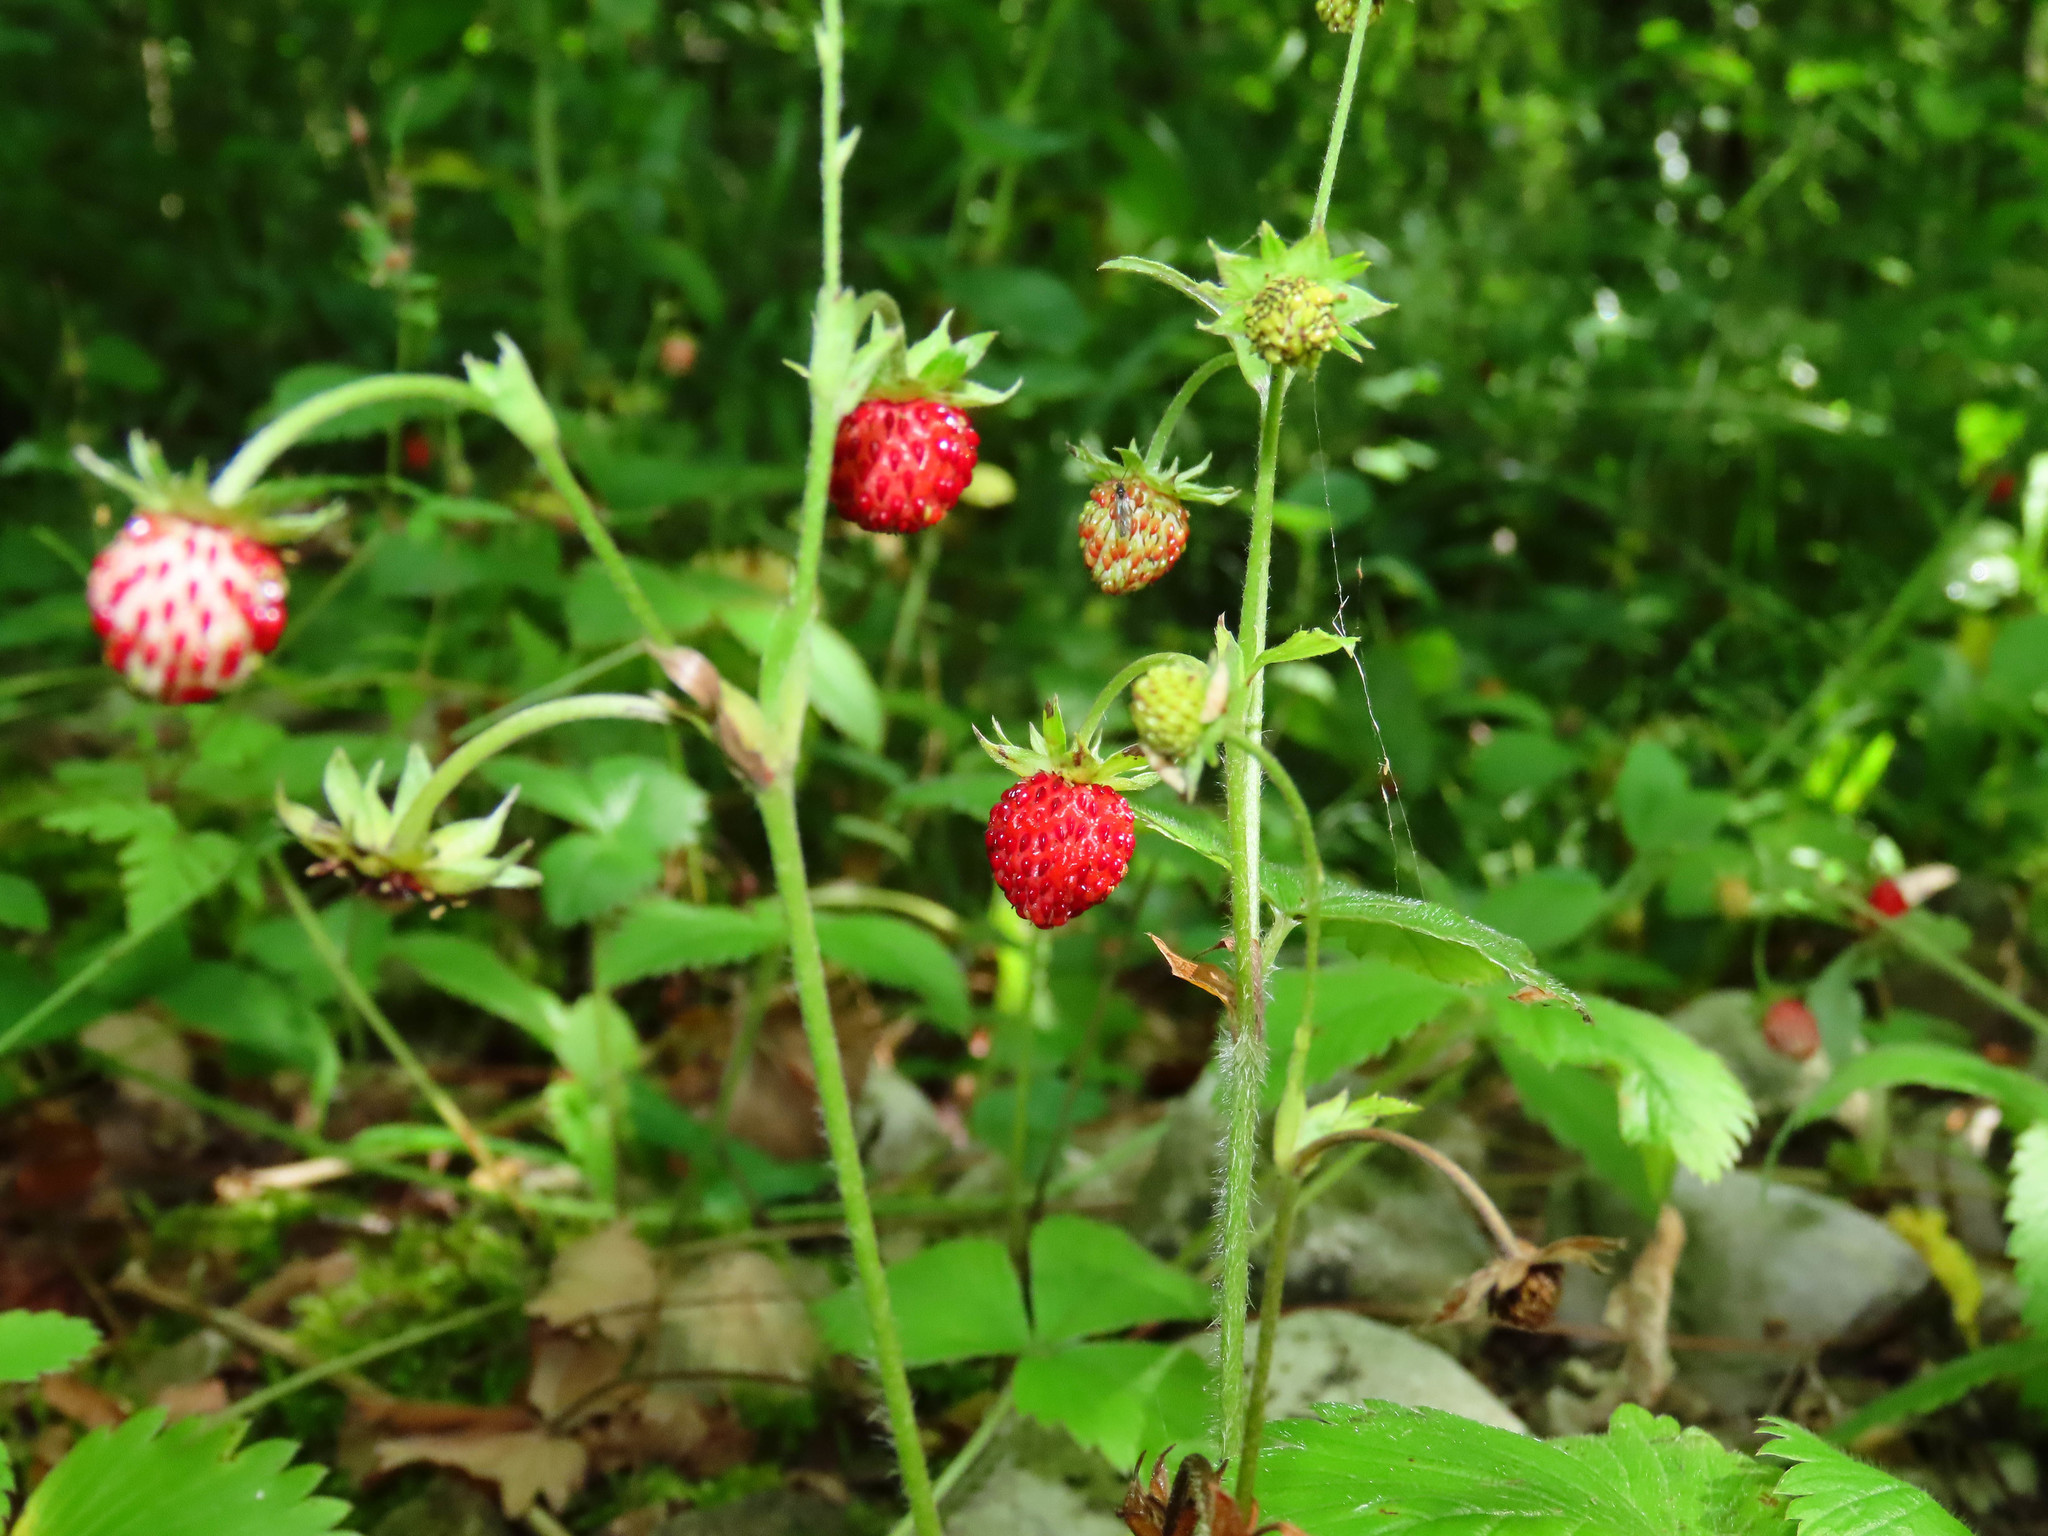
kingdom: Plantae
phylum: Tracheophyta
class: Magnoliopsida
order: Rosales
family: Rosaceae
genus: Fragaria
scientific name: Fragaria vesca
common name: Wild strawberry
